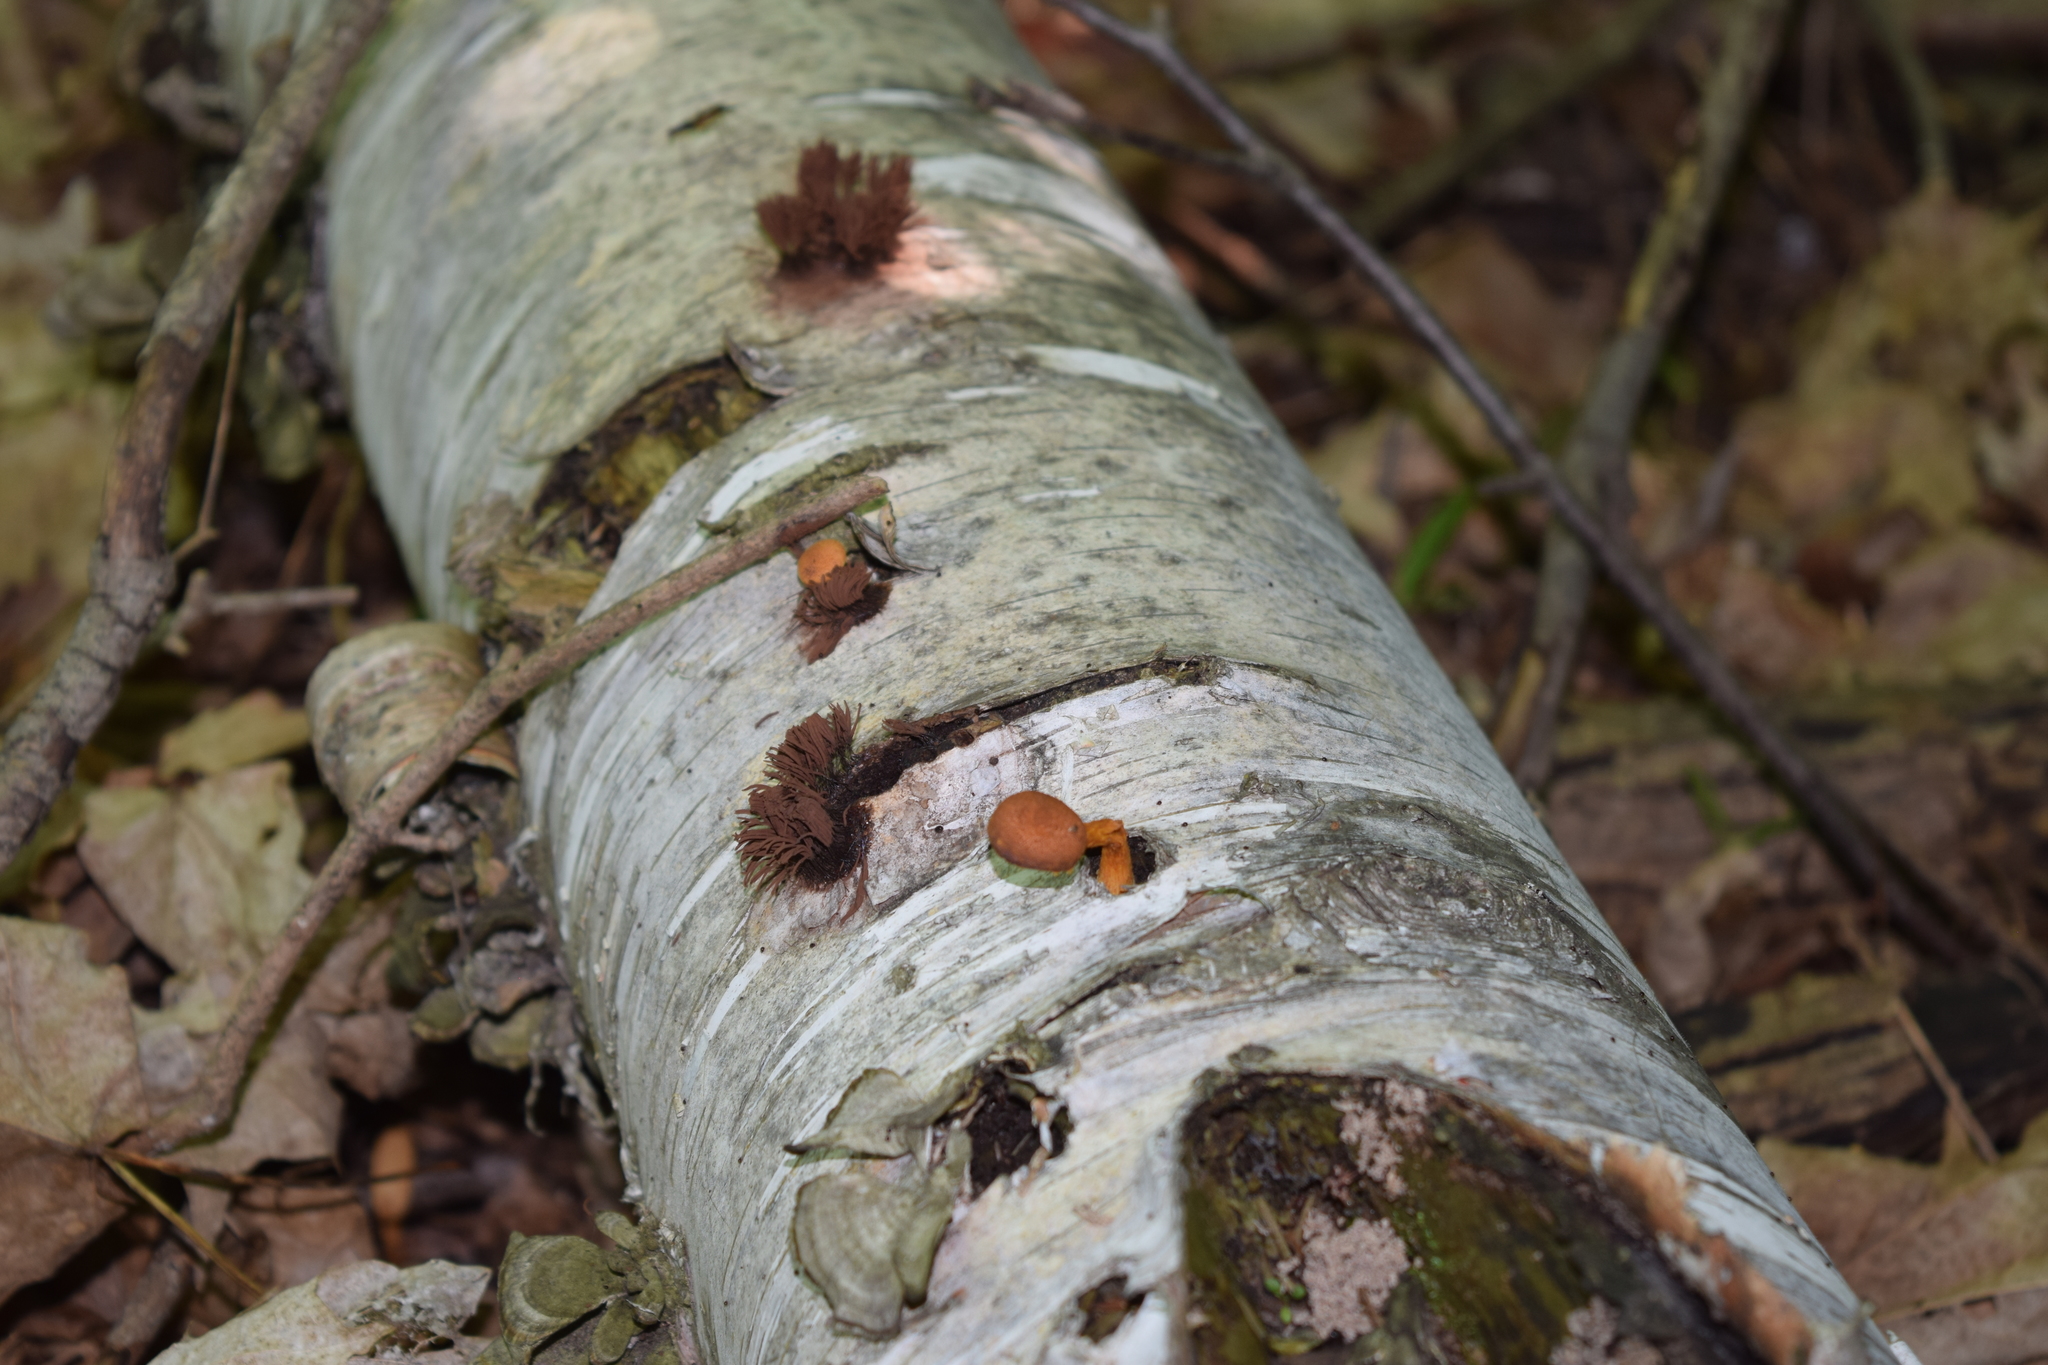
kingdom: Fungi
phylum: Basidiomycota
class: Agaricomycetes
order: Agaricales
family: Tubariaceae
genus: Flammulaster
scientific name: Flammulaster erinaceellus
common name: Powder-scale pholiota
